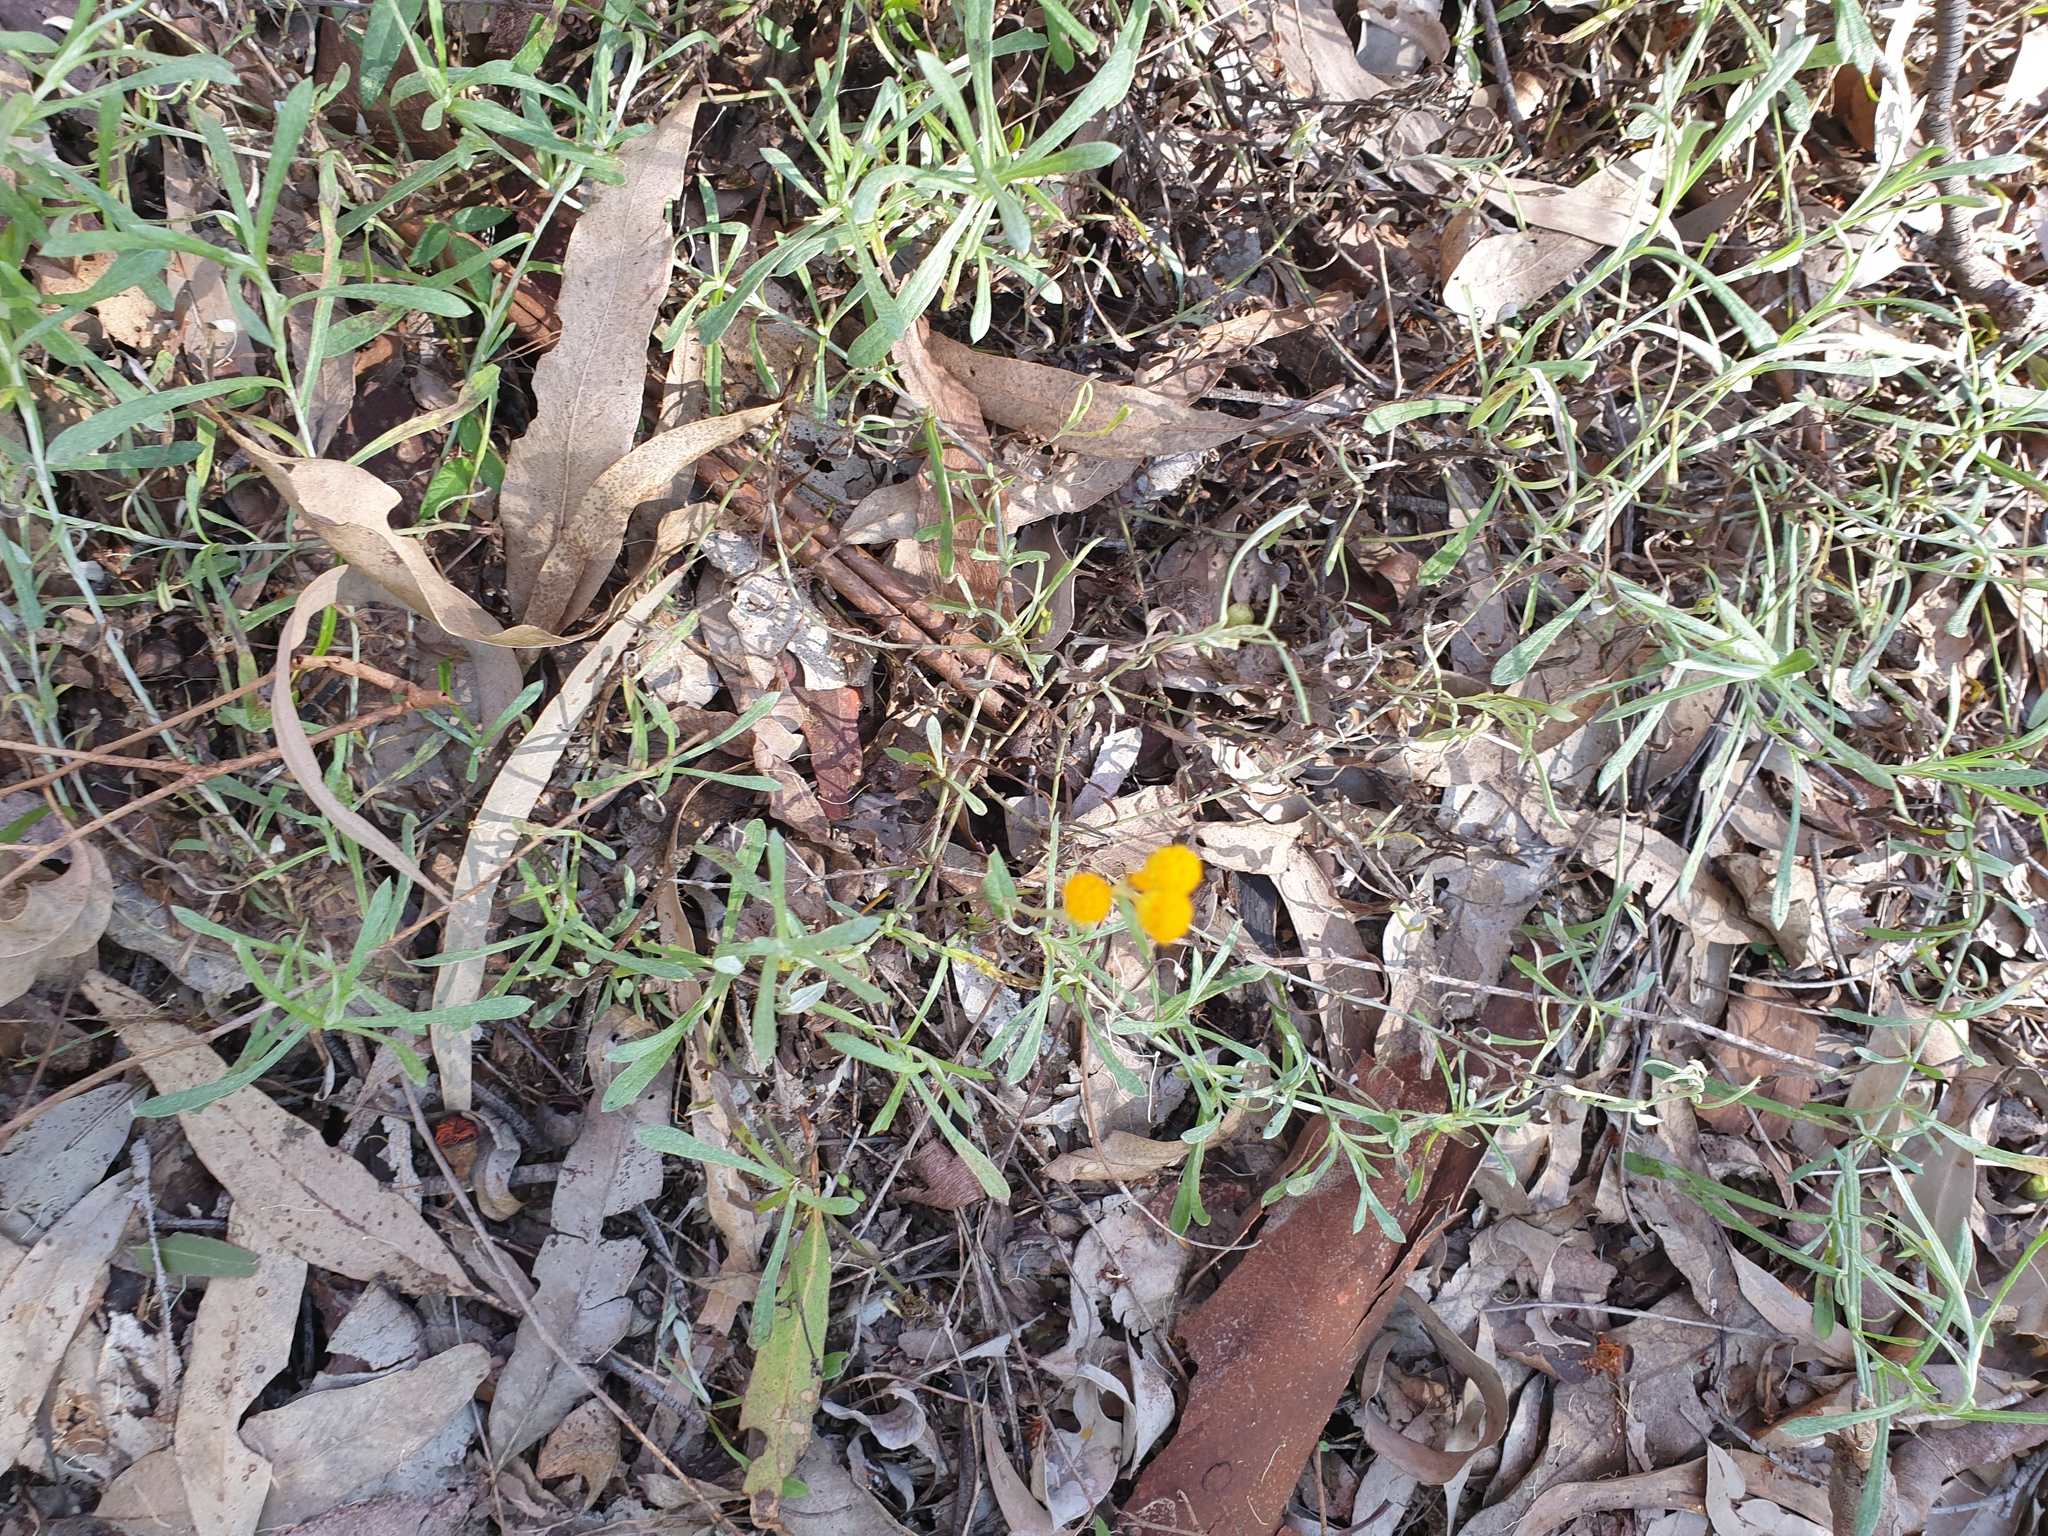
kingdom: Plantae
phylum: Tracheophyta
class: Magnoliopsida
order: Asterales
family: Asteraceae
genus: Chrysocephalum
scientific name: Chrysocephalum apiculatum
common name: Common everlasting
